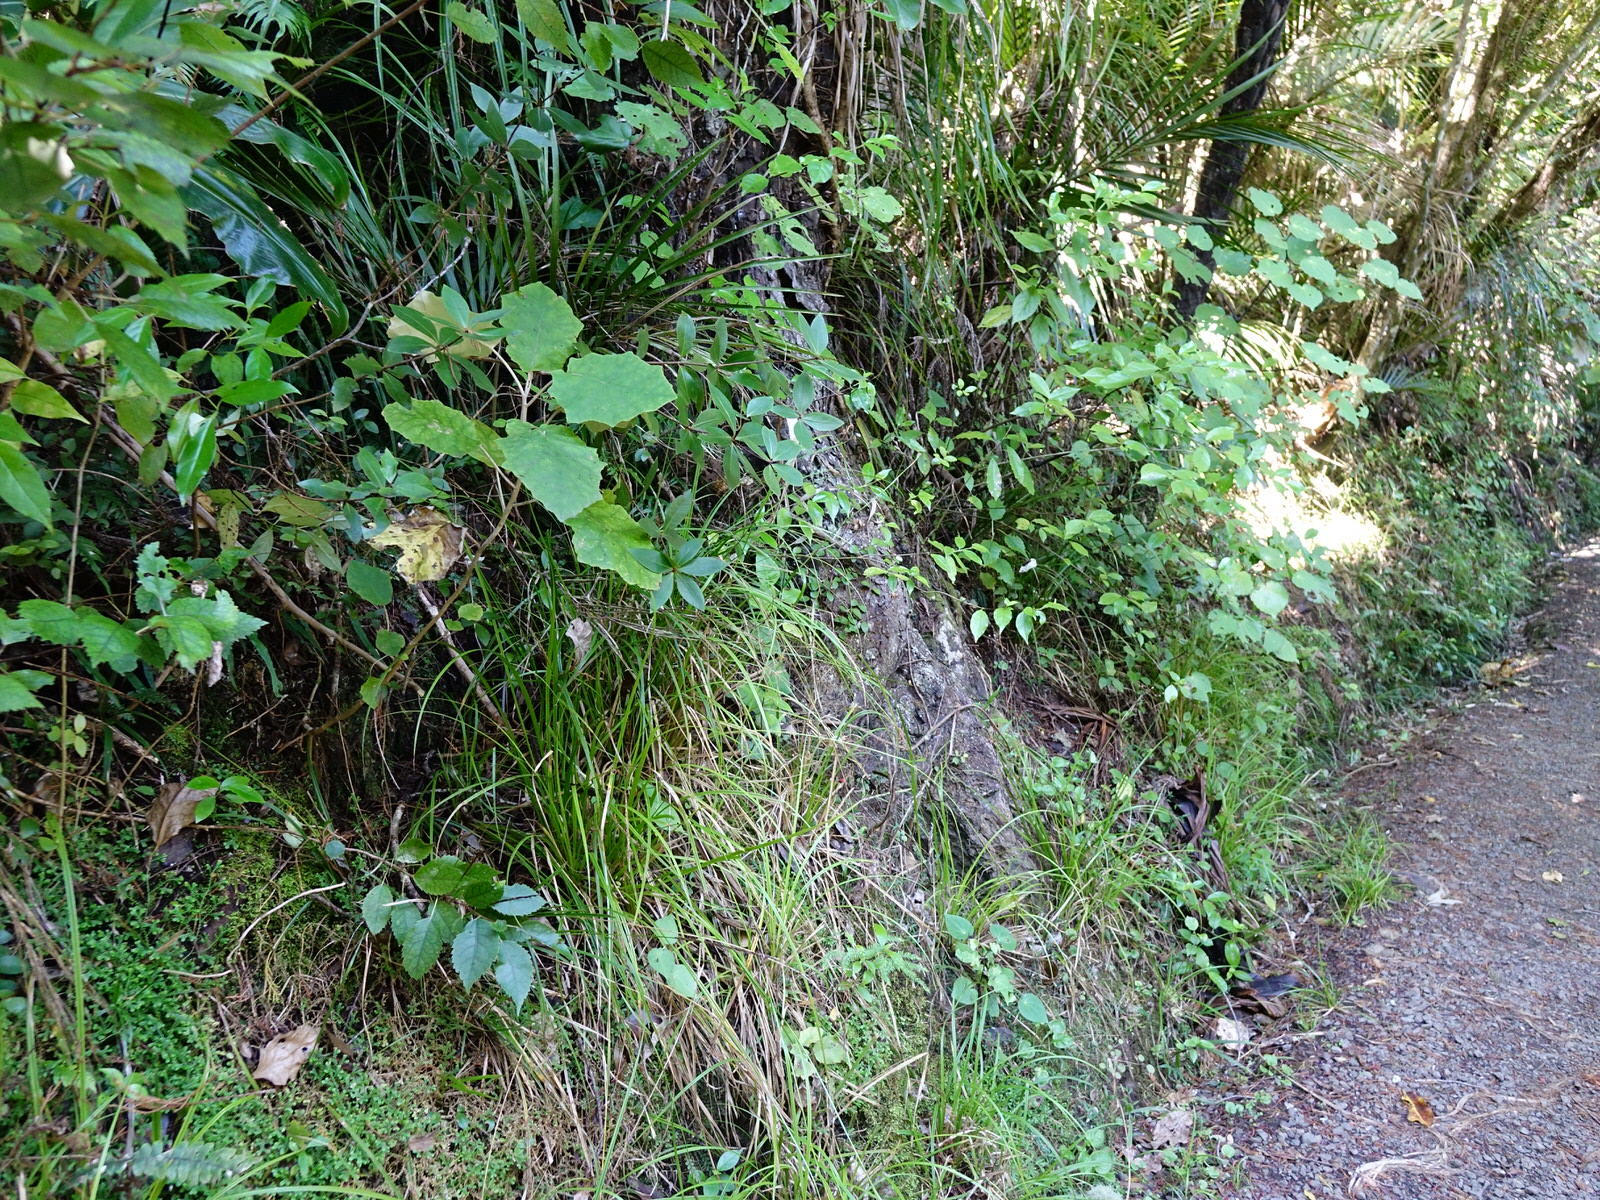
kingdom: Plantae
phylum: Tracheophyta
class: Magnoliopsida
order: Apiales
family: Pittosporaceae
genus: Pittosporum
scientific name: Pittosporum cornifolium
